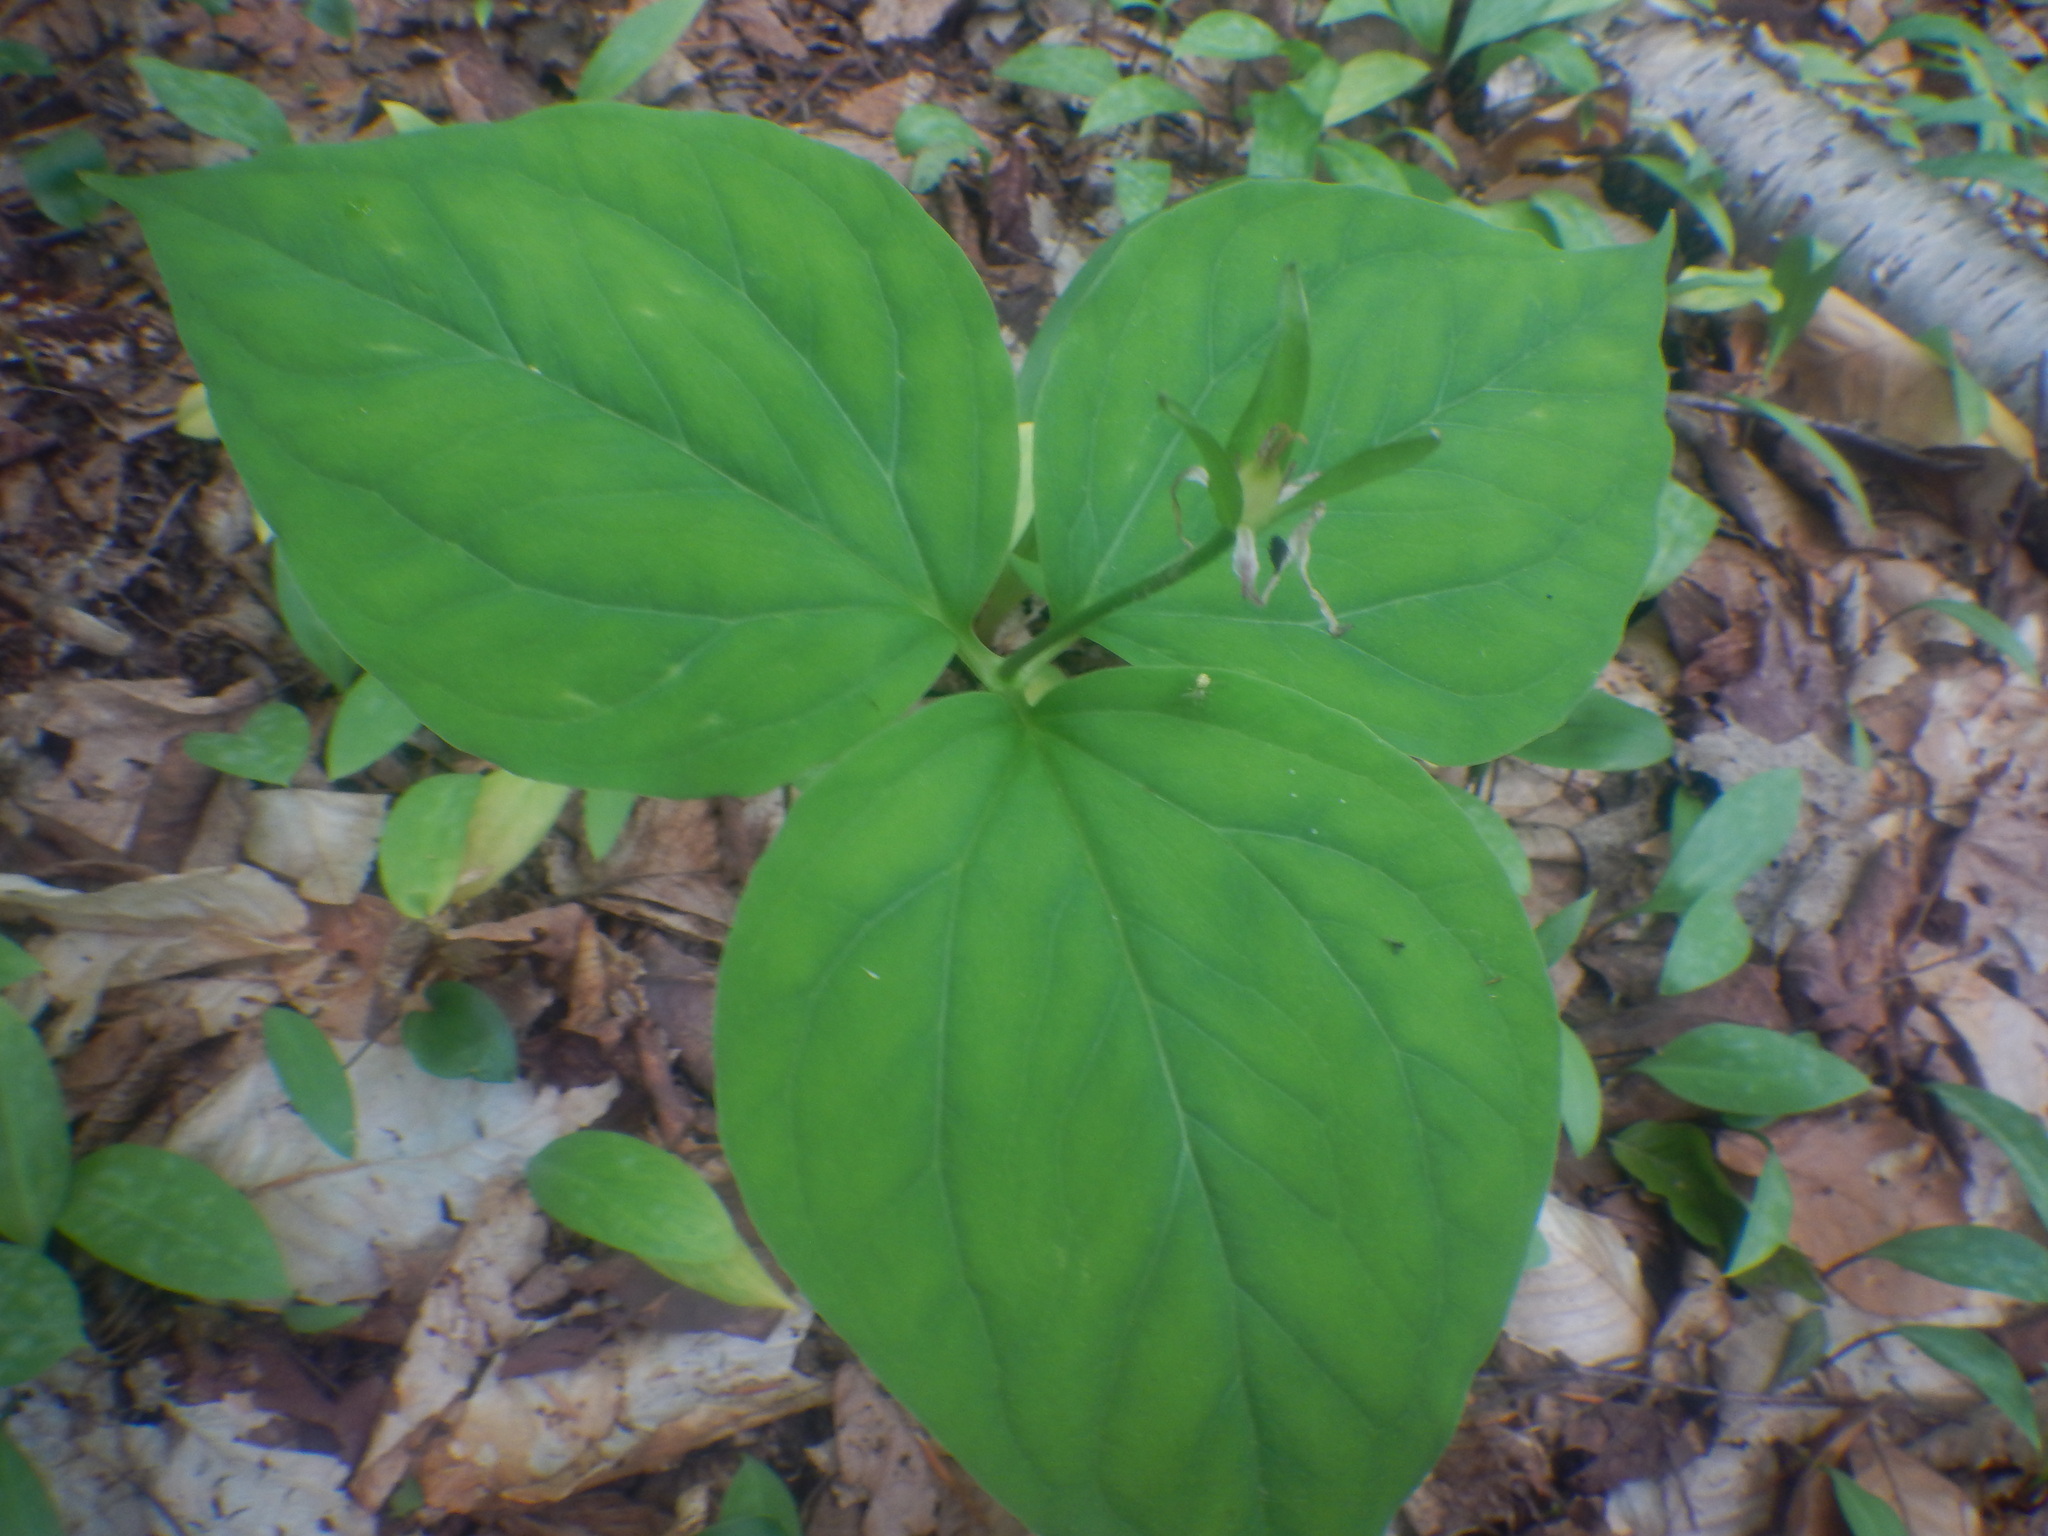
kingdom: Plantae
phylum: Tracheophyta
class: Liliopsida
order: Liliales
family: Melanthiaceae
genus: Trillium
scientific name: Trillium undulatum
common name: Paint trillium
